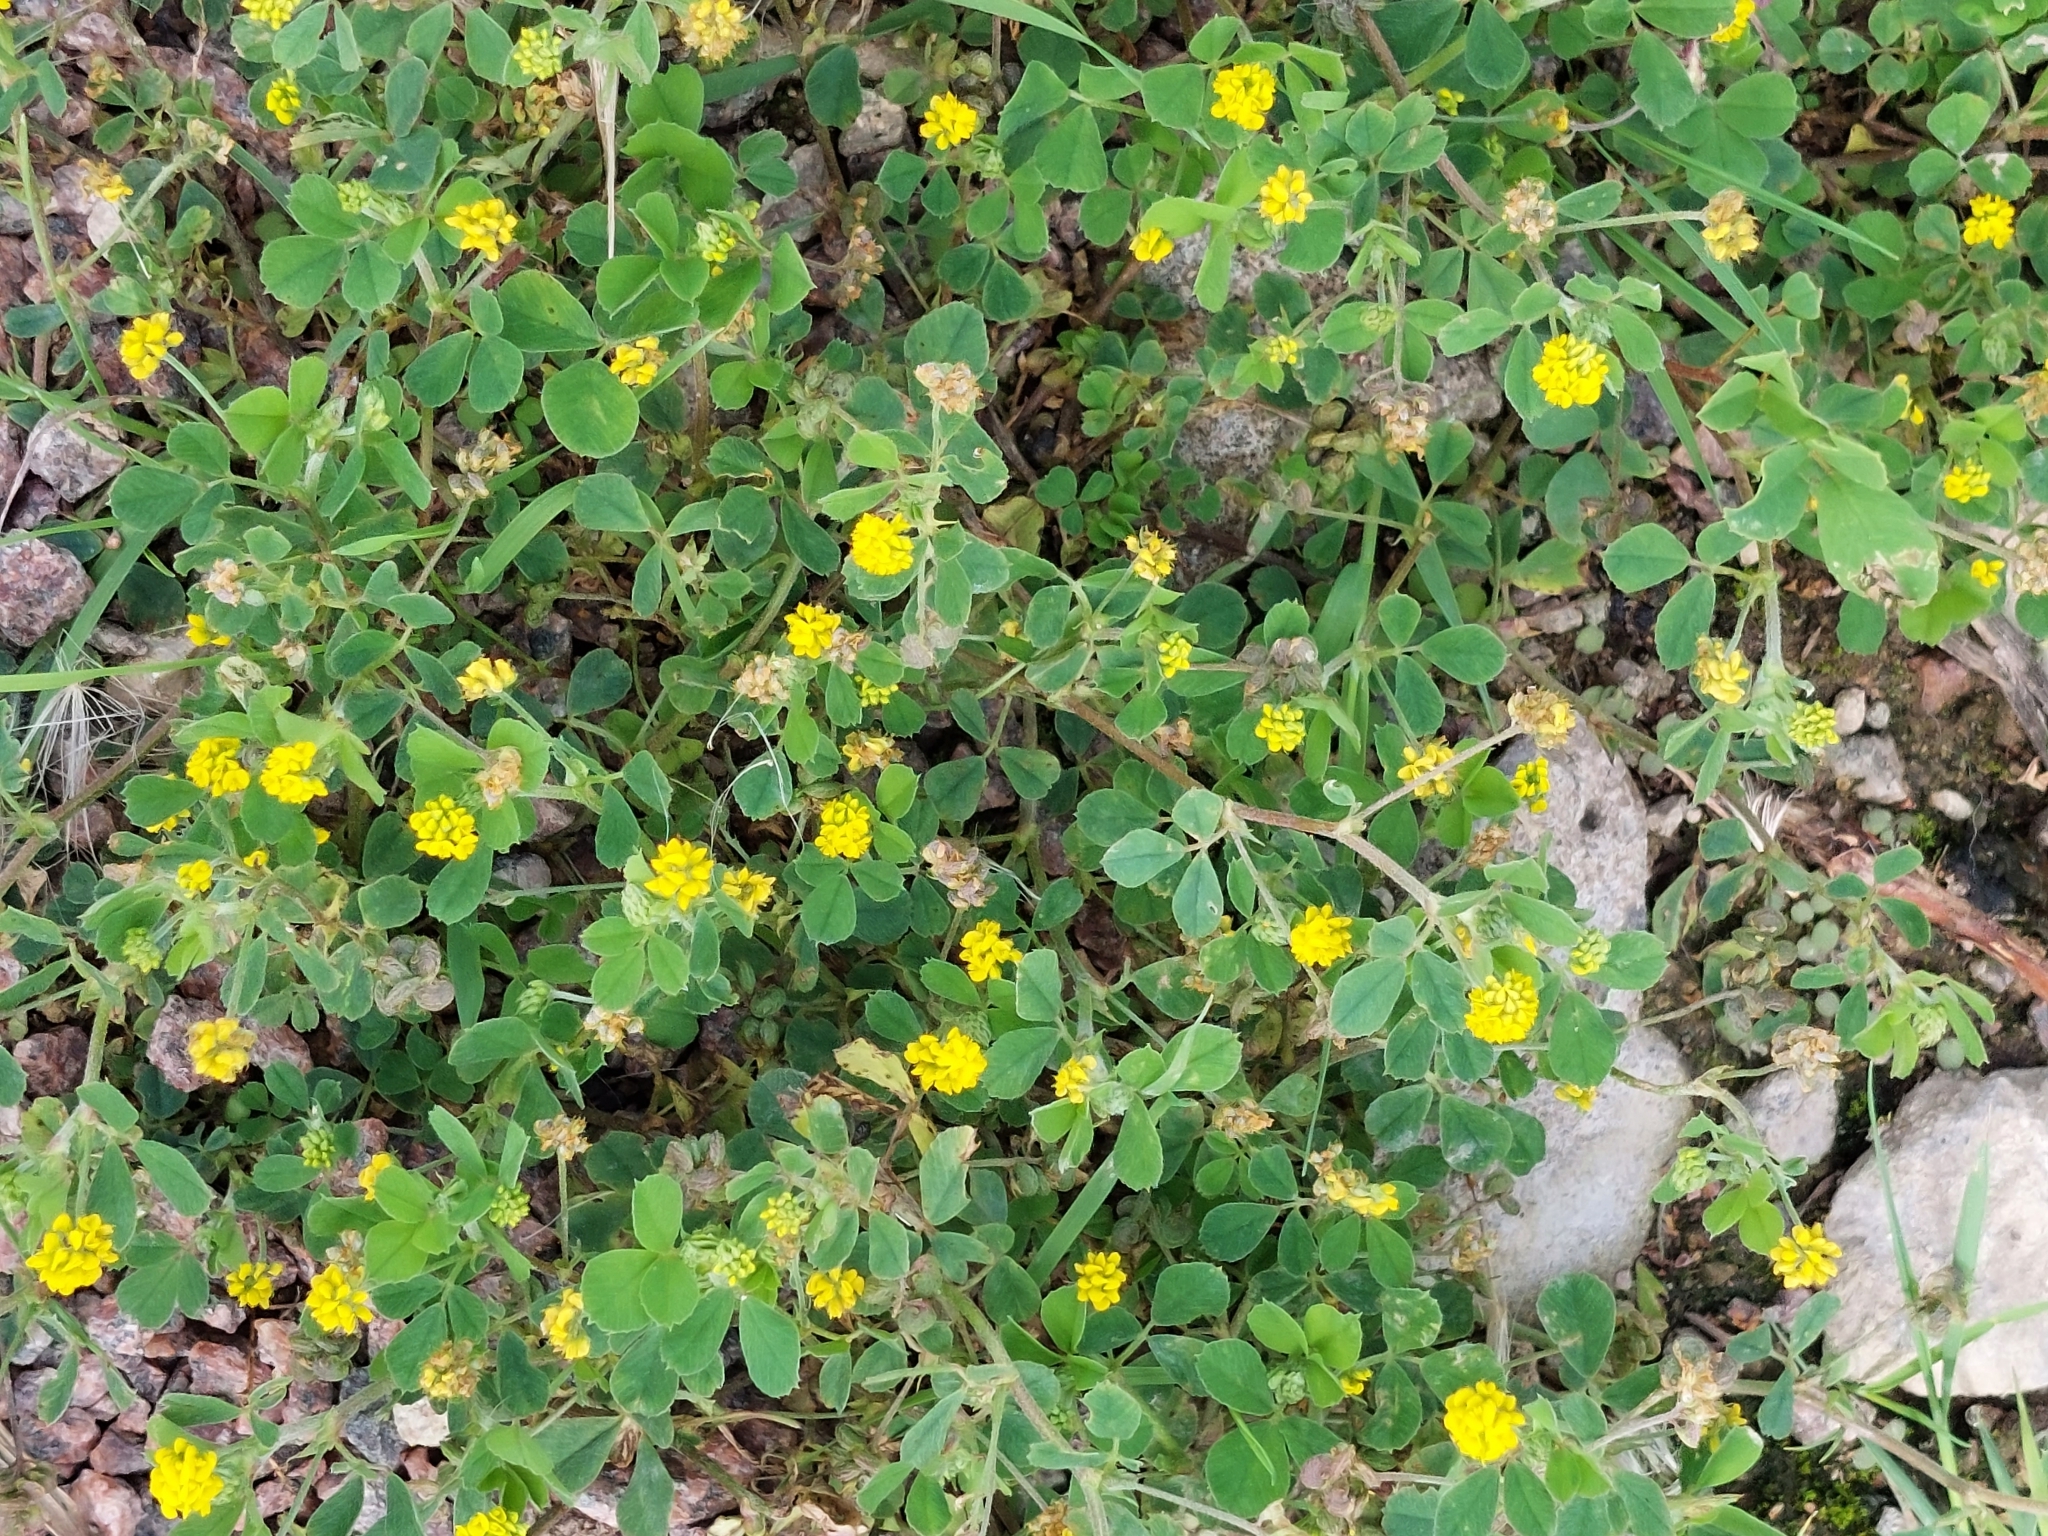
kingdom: Plantae
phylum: Tracheophyta
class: Magnoliopsida
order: Fabales
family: Fabaceae
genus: Medicago
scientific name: Medicago lupulina
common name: Black medick
